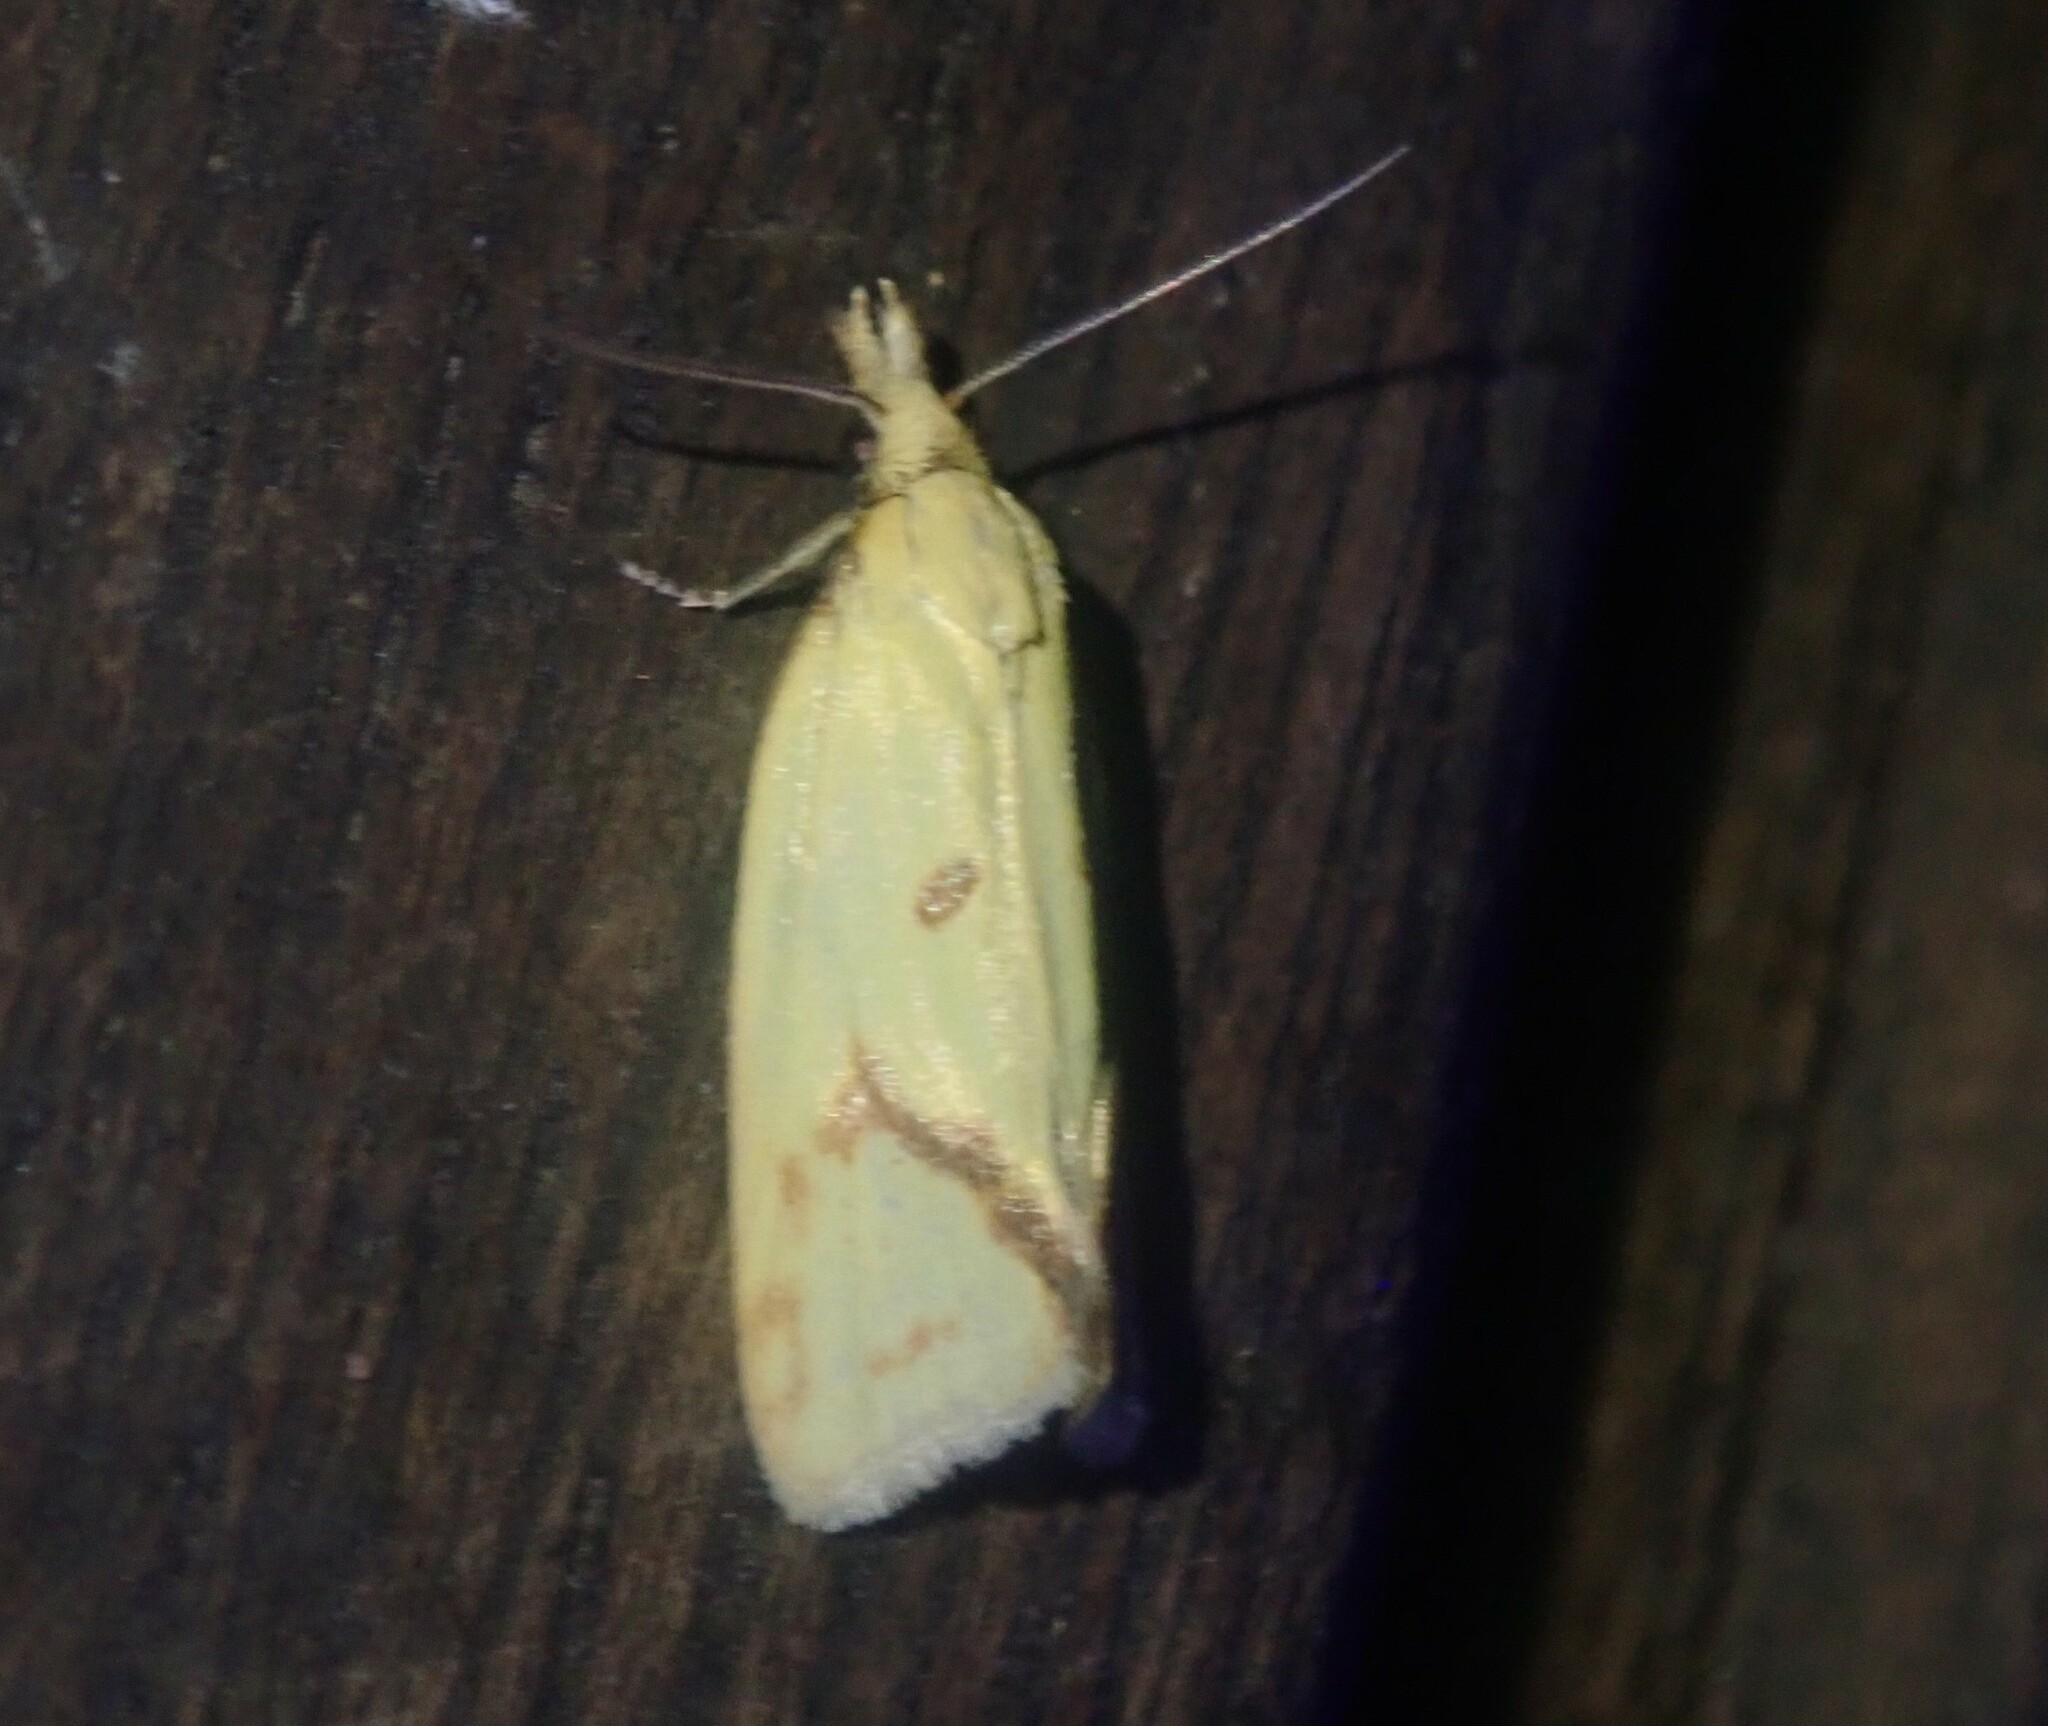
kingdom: Animalia
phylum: Arthropoda
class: Insecta
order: Lepidoptera
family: Tortricidae
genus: Agapeta
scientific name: Agapeta hamana
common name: Common yellow conch
